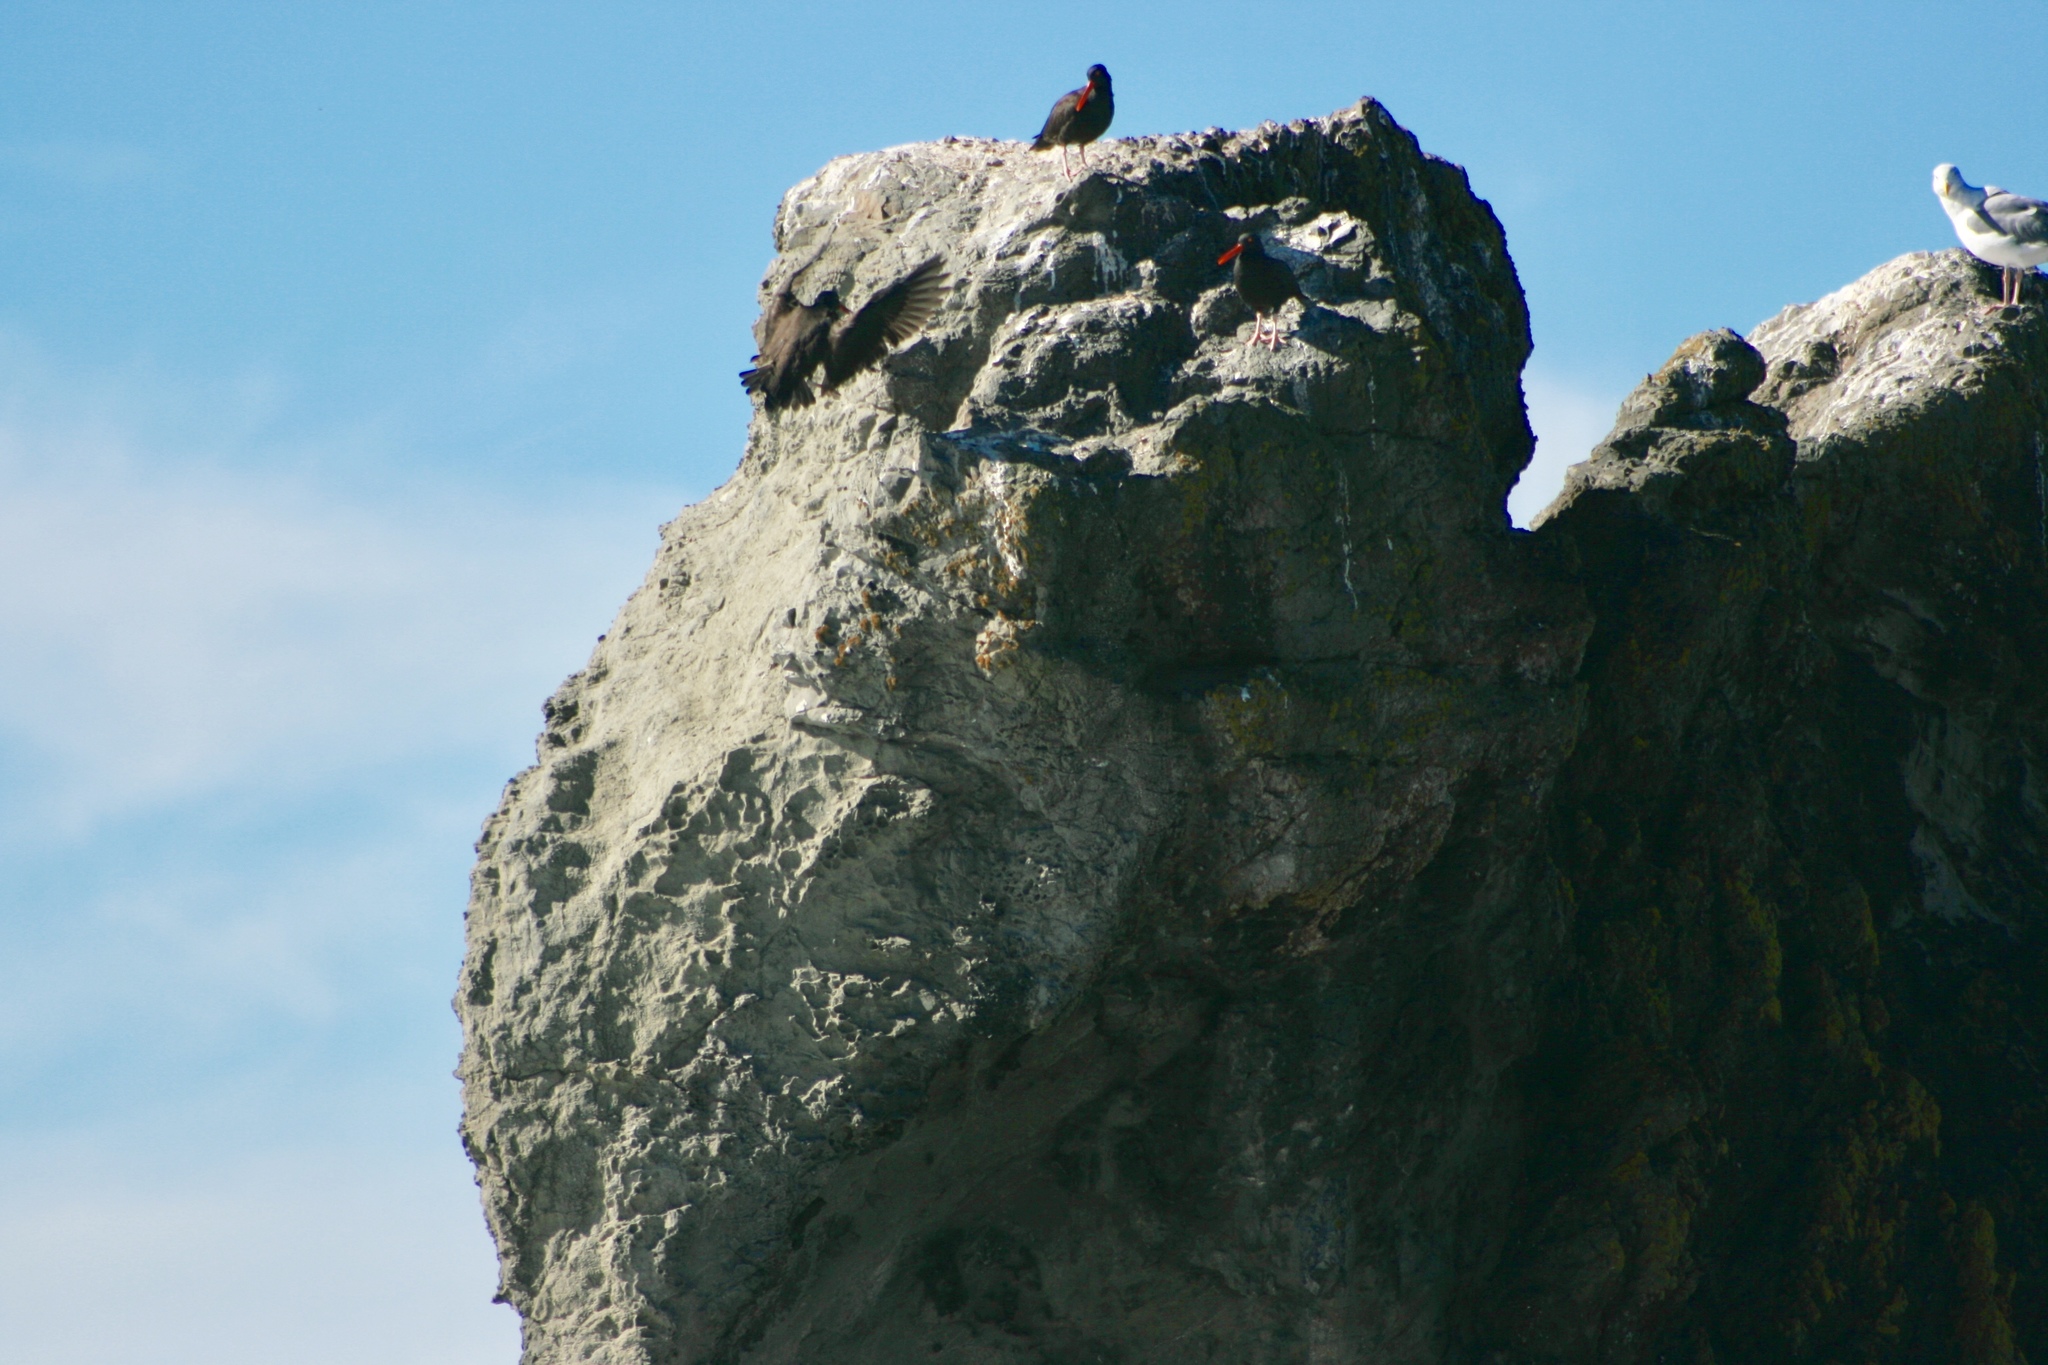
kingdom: Animalia
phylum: Chordata
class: Aves
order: Charadriiformes
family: Haematopodidae
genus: Haematopus
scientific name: Haematopus bachmani
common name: Black oystercatcher
